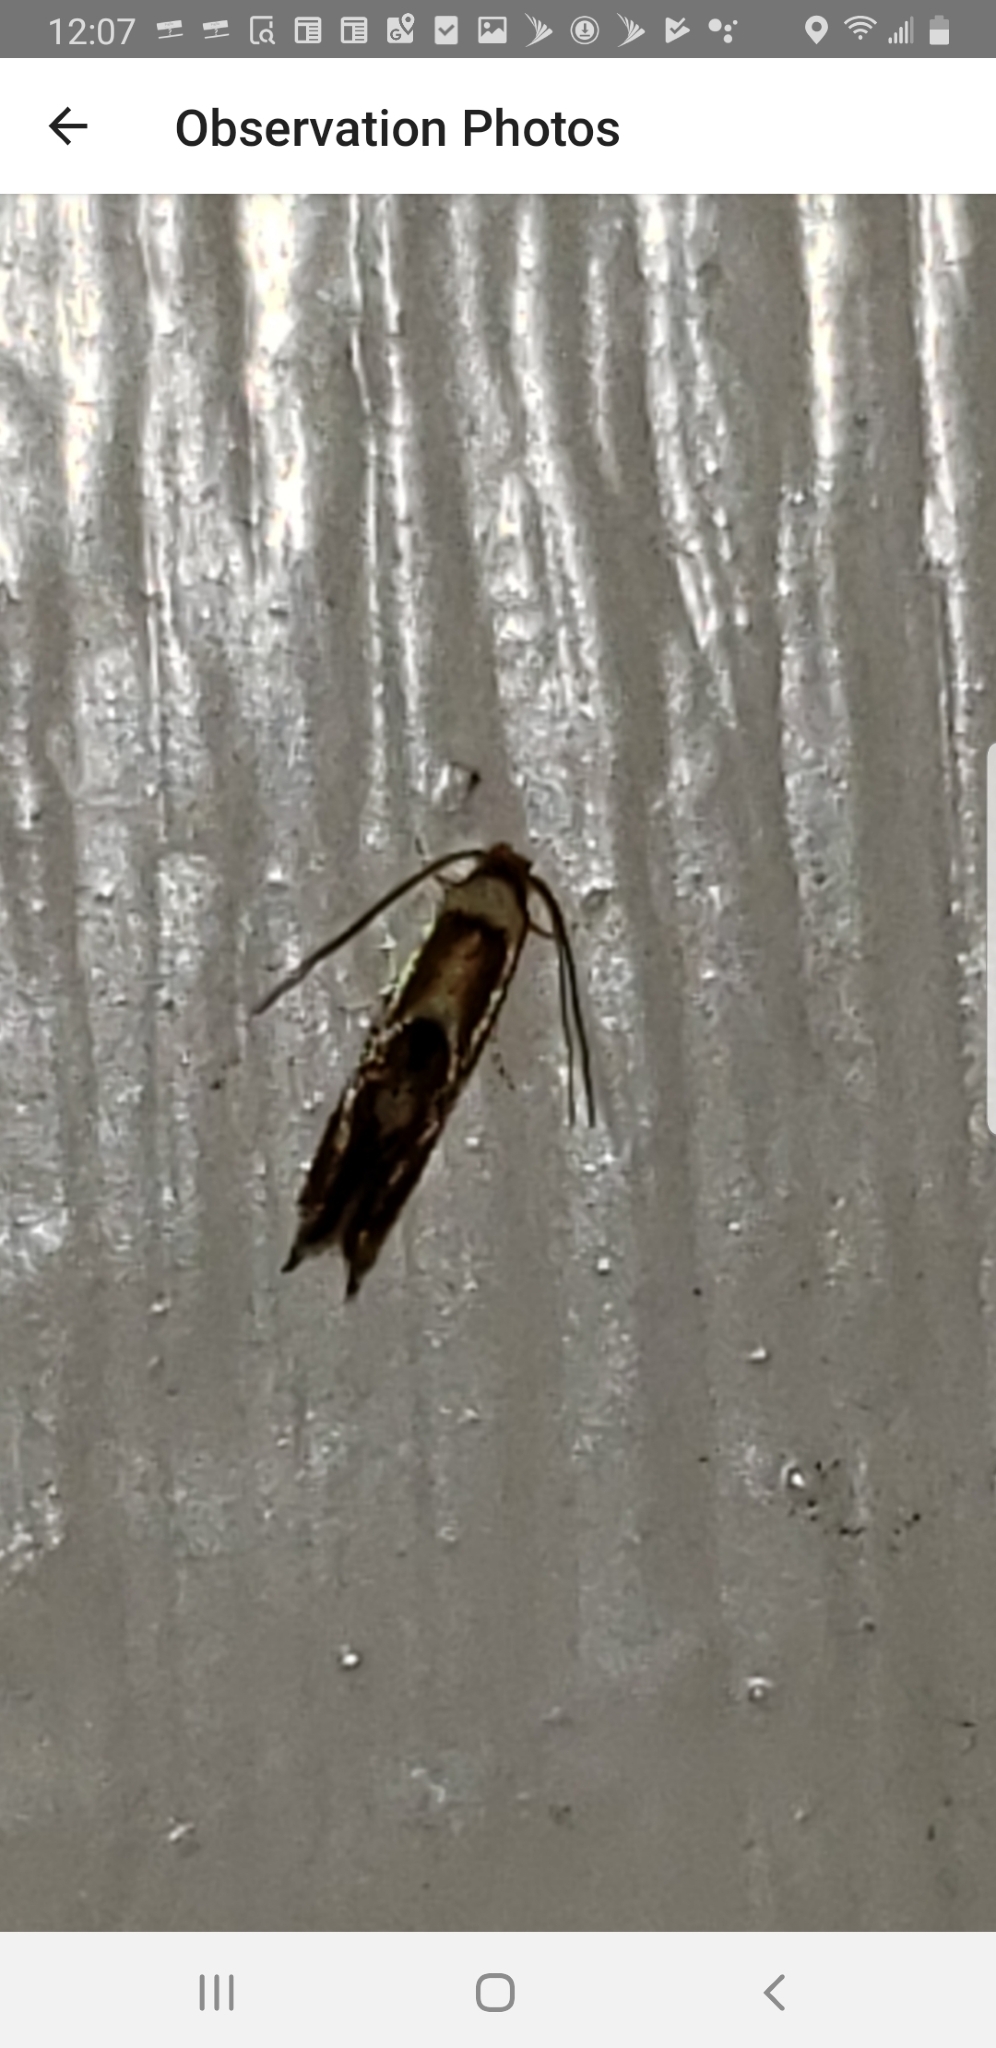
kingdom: Animalia
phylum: Arthropoda
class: Insecta
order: Lepidoptera
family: Lyonetiidae
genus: Philonome
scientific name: Philonome clemensella
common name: Clemen's philonome moth
